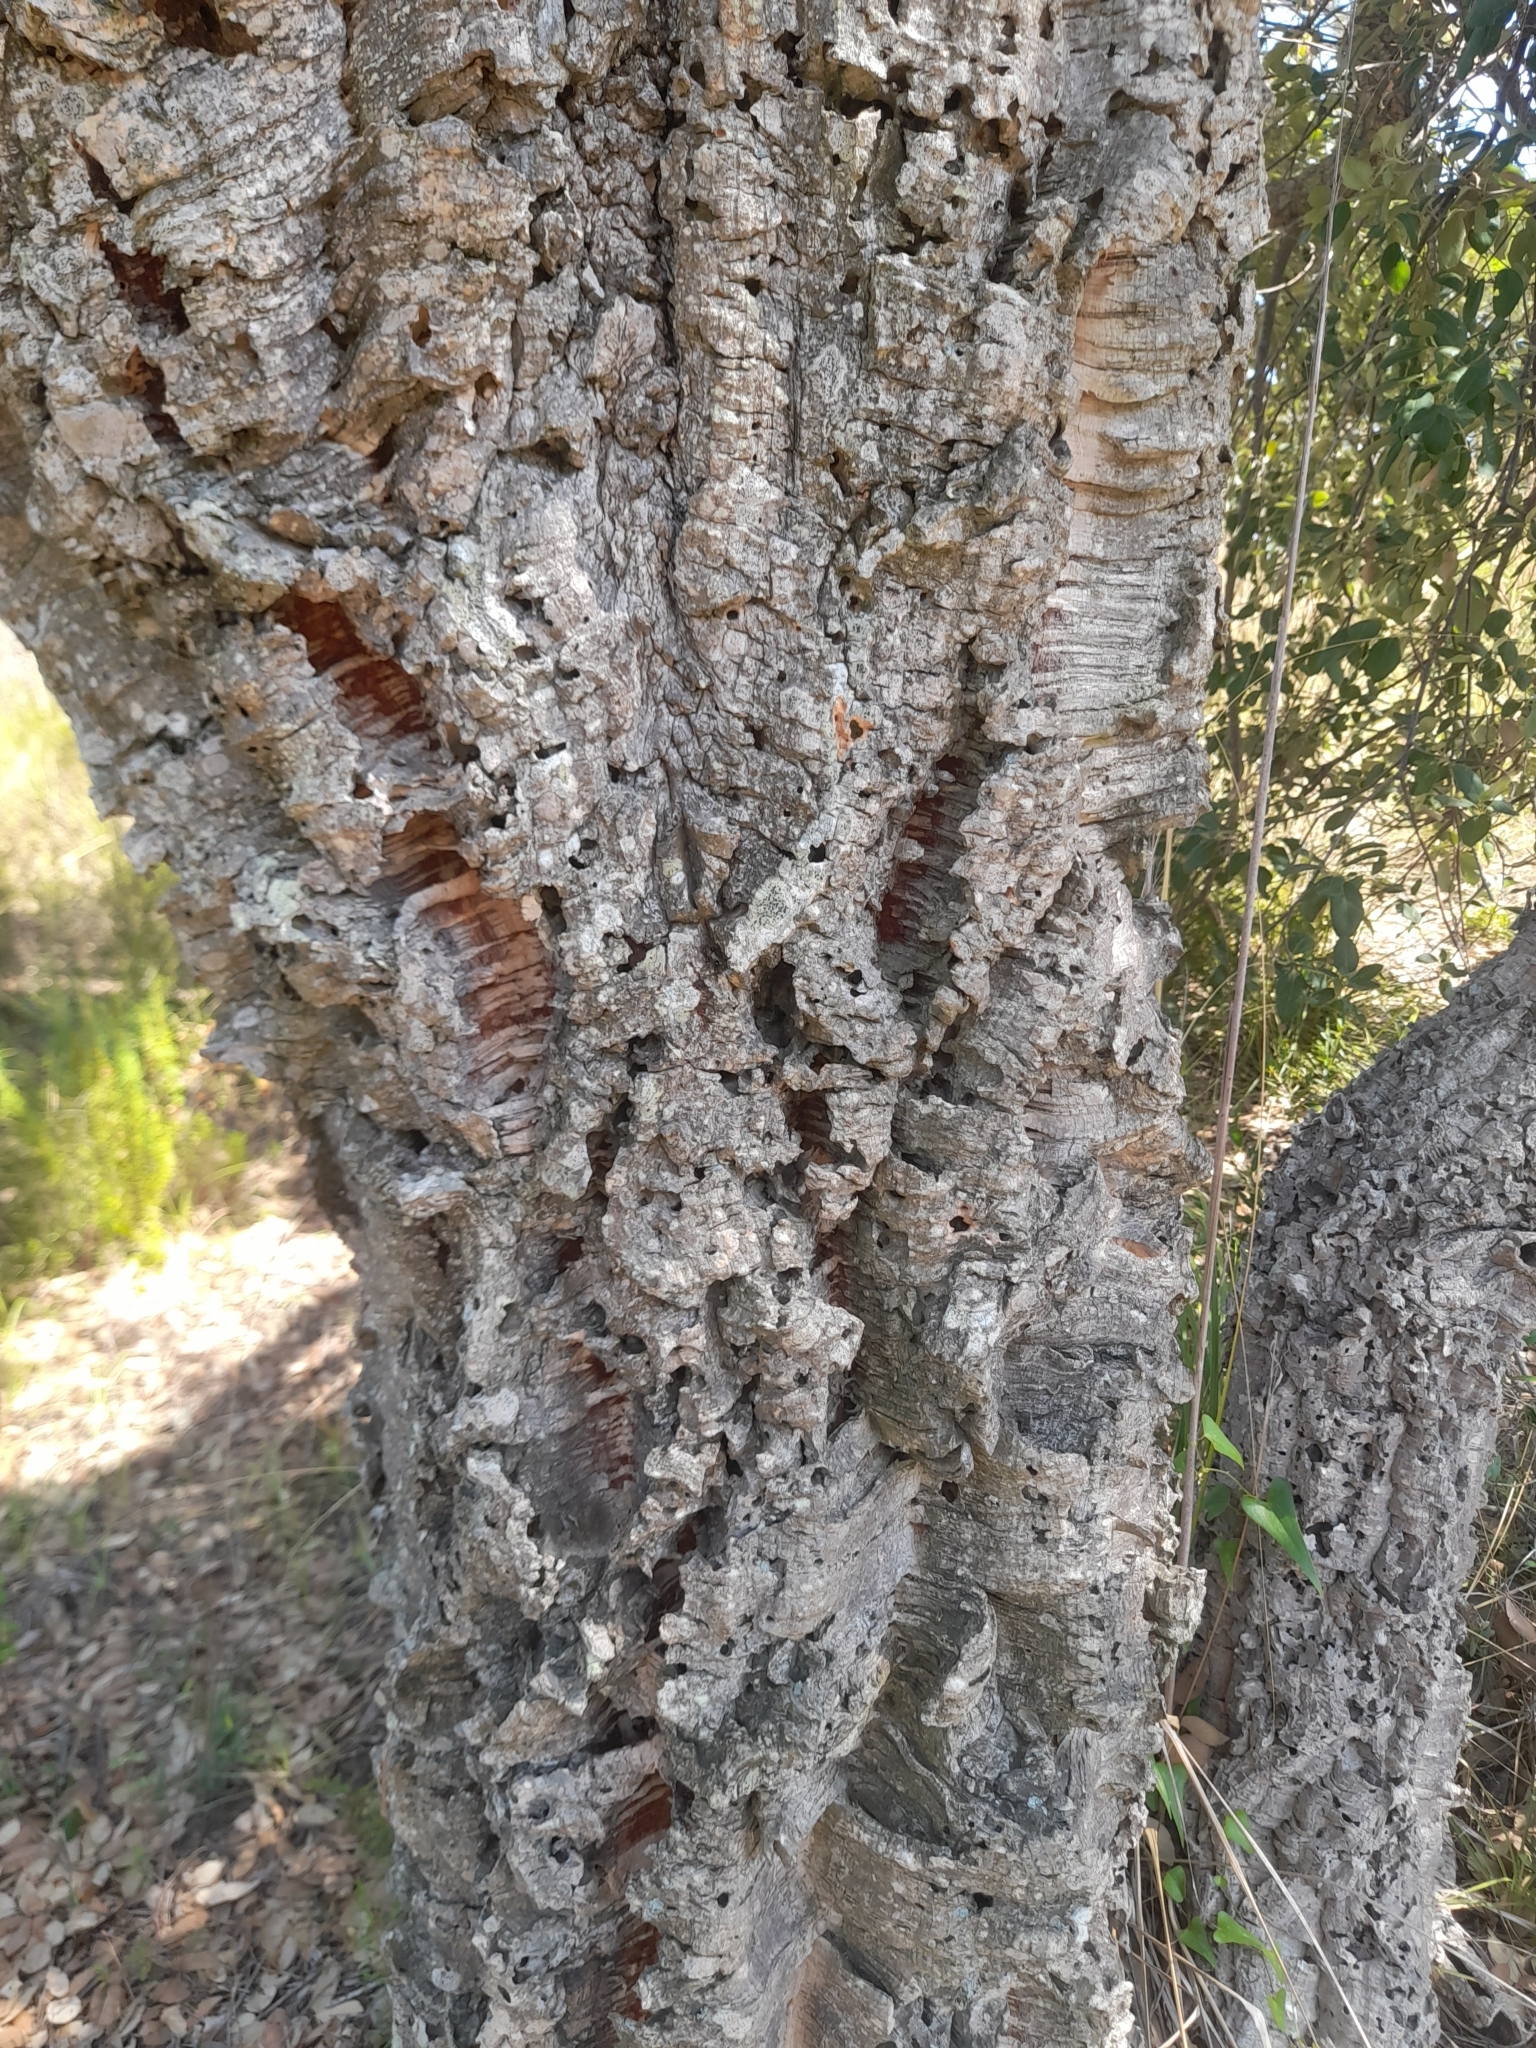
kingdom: Plantae
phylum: Tracheophyta
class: Magnoliopsida
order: Fagales
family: Fagaceae
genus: Quercus
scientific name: Quercus suber
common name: Cork oak
